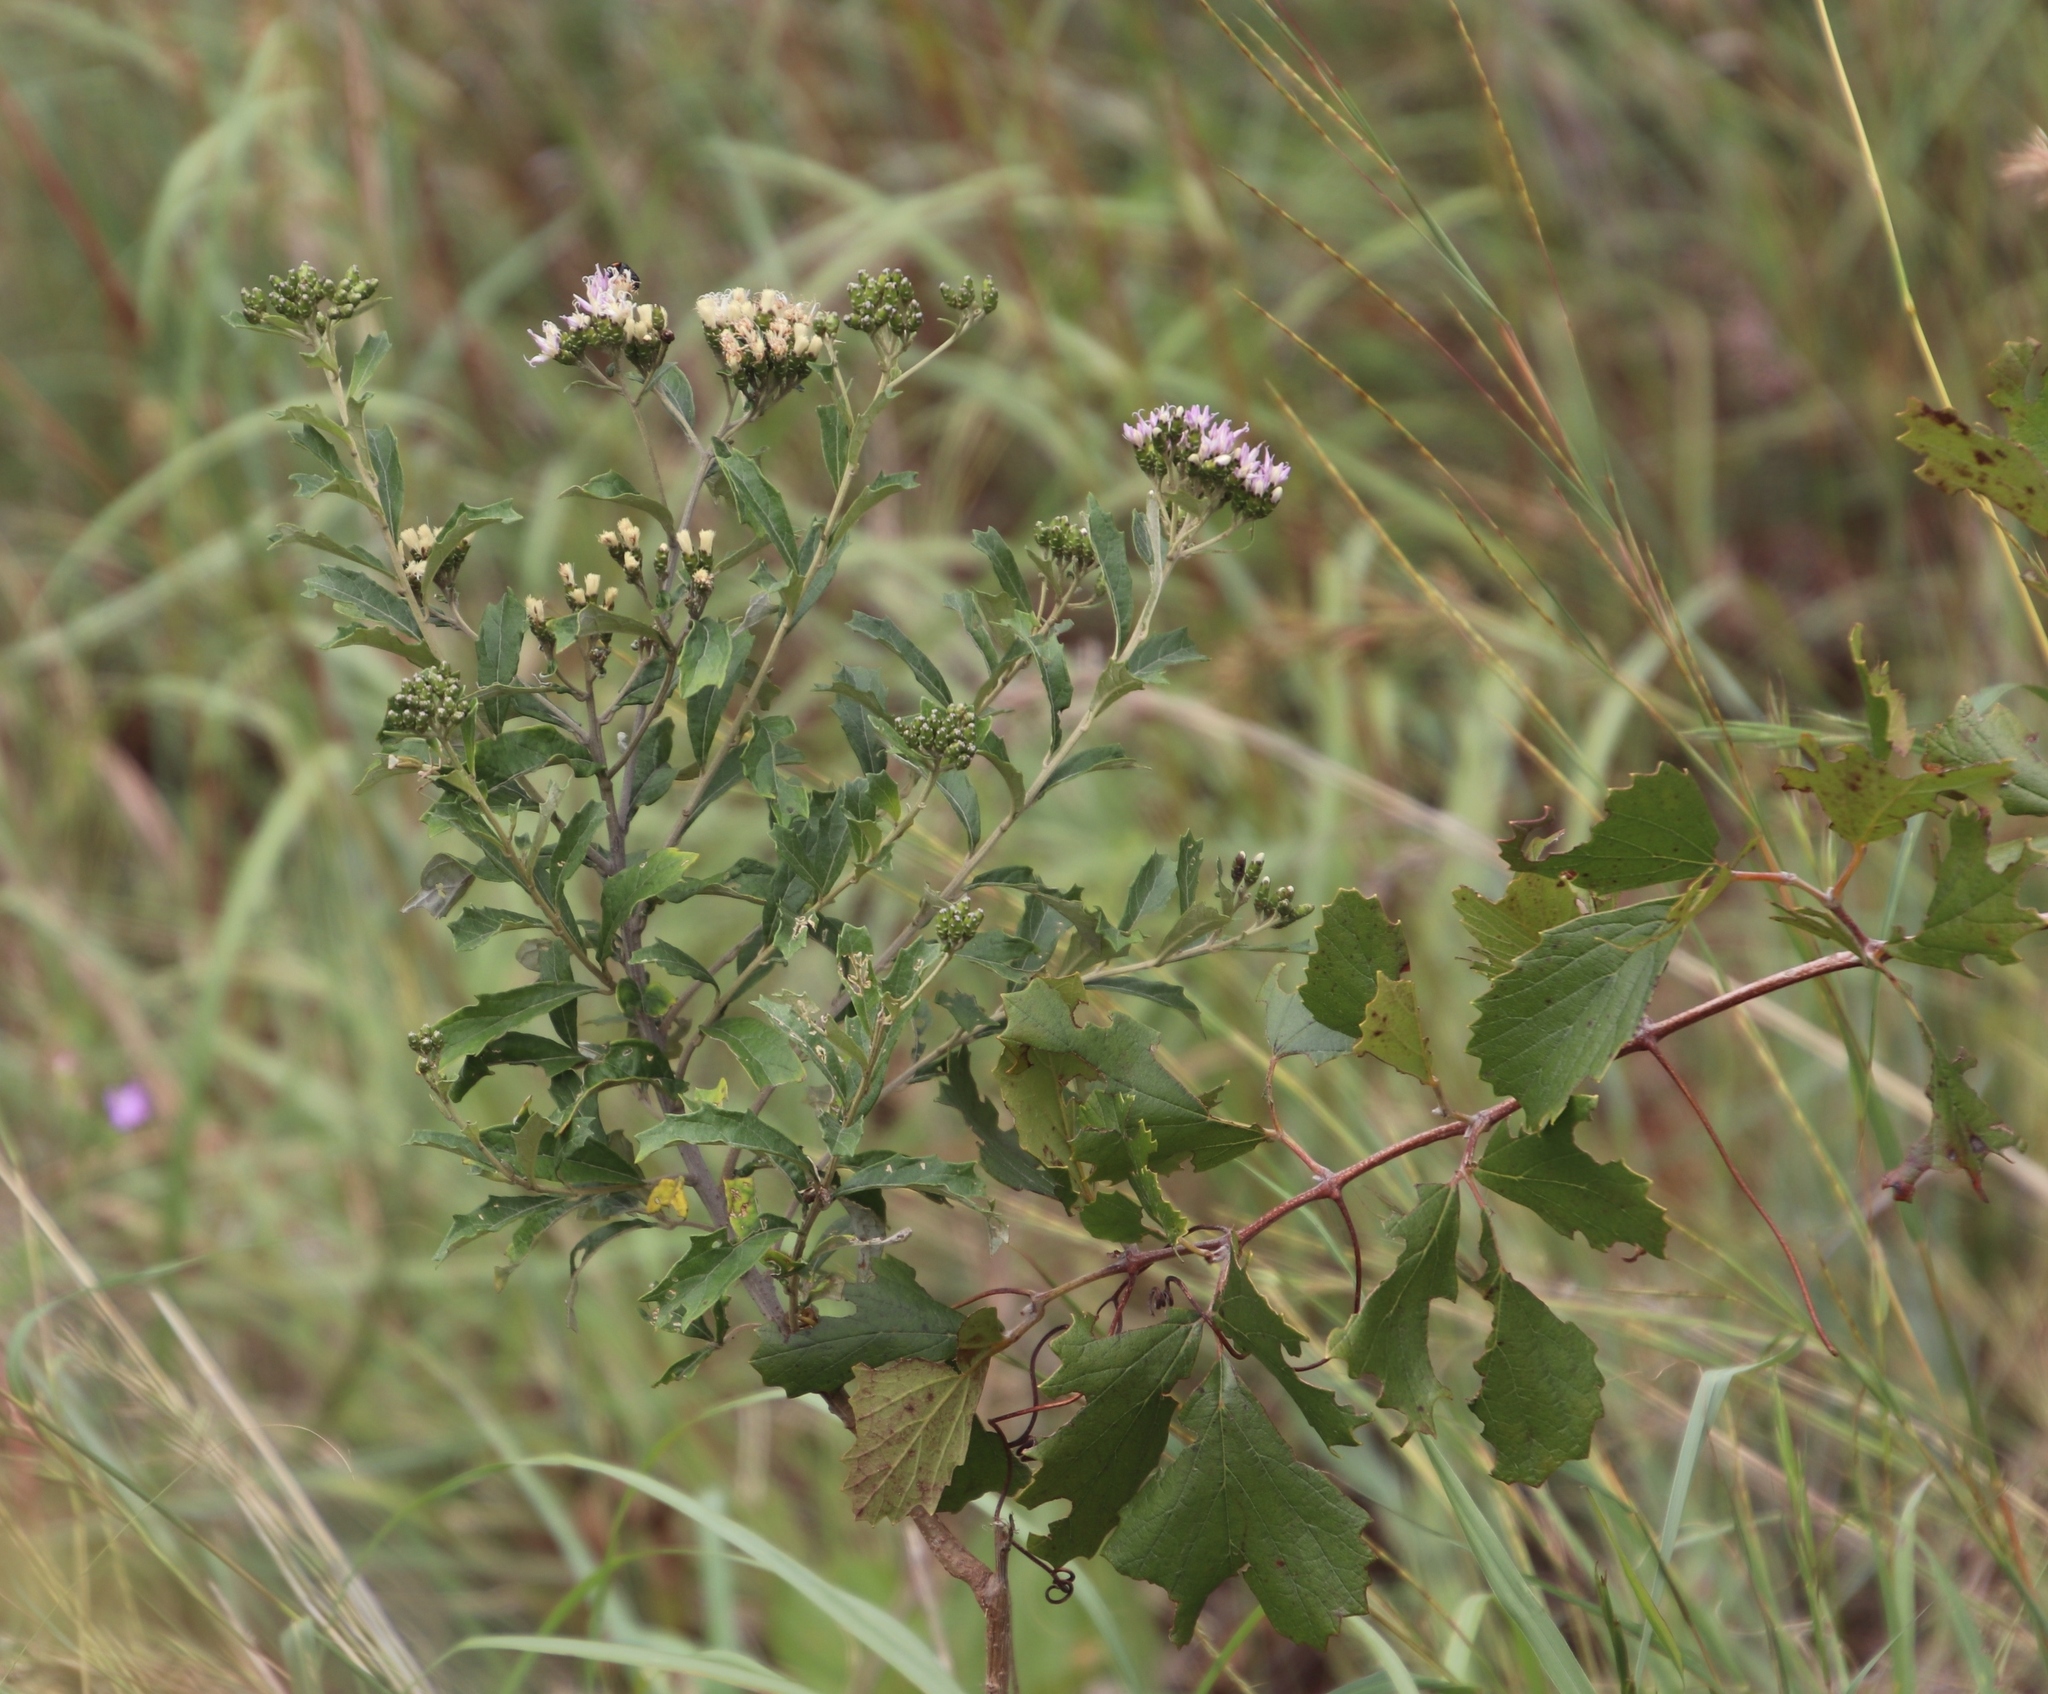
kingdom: Plantae
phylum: Tracheophyta
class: Magnoliopsida
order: Asterales
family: Asteraceae
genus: Gymnanthemum
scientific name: Gymnanthemum corymbosum
